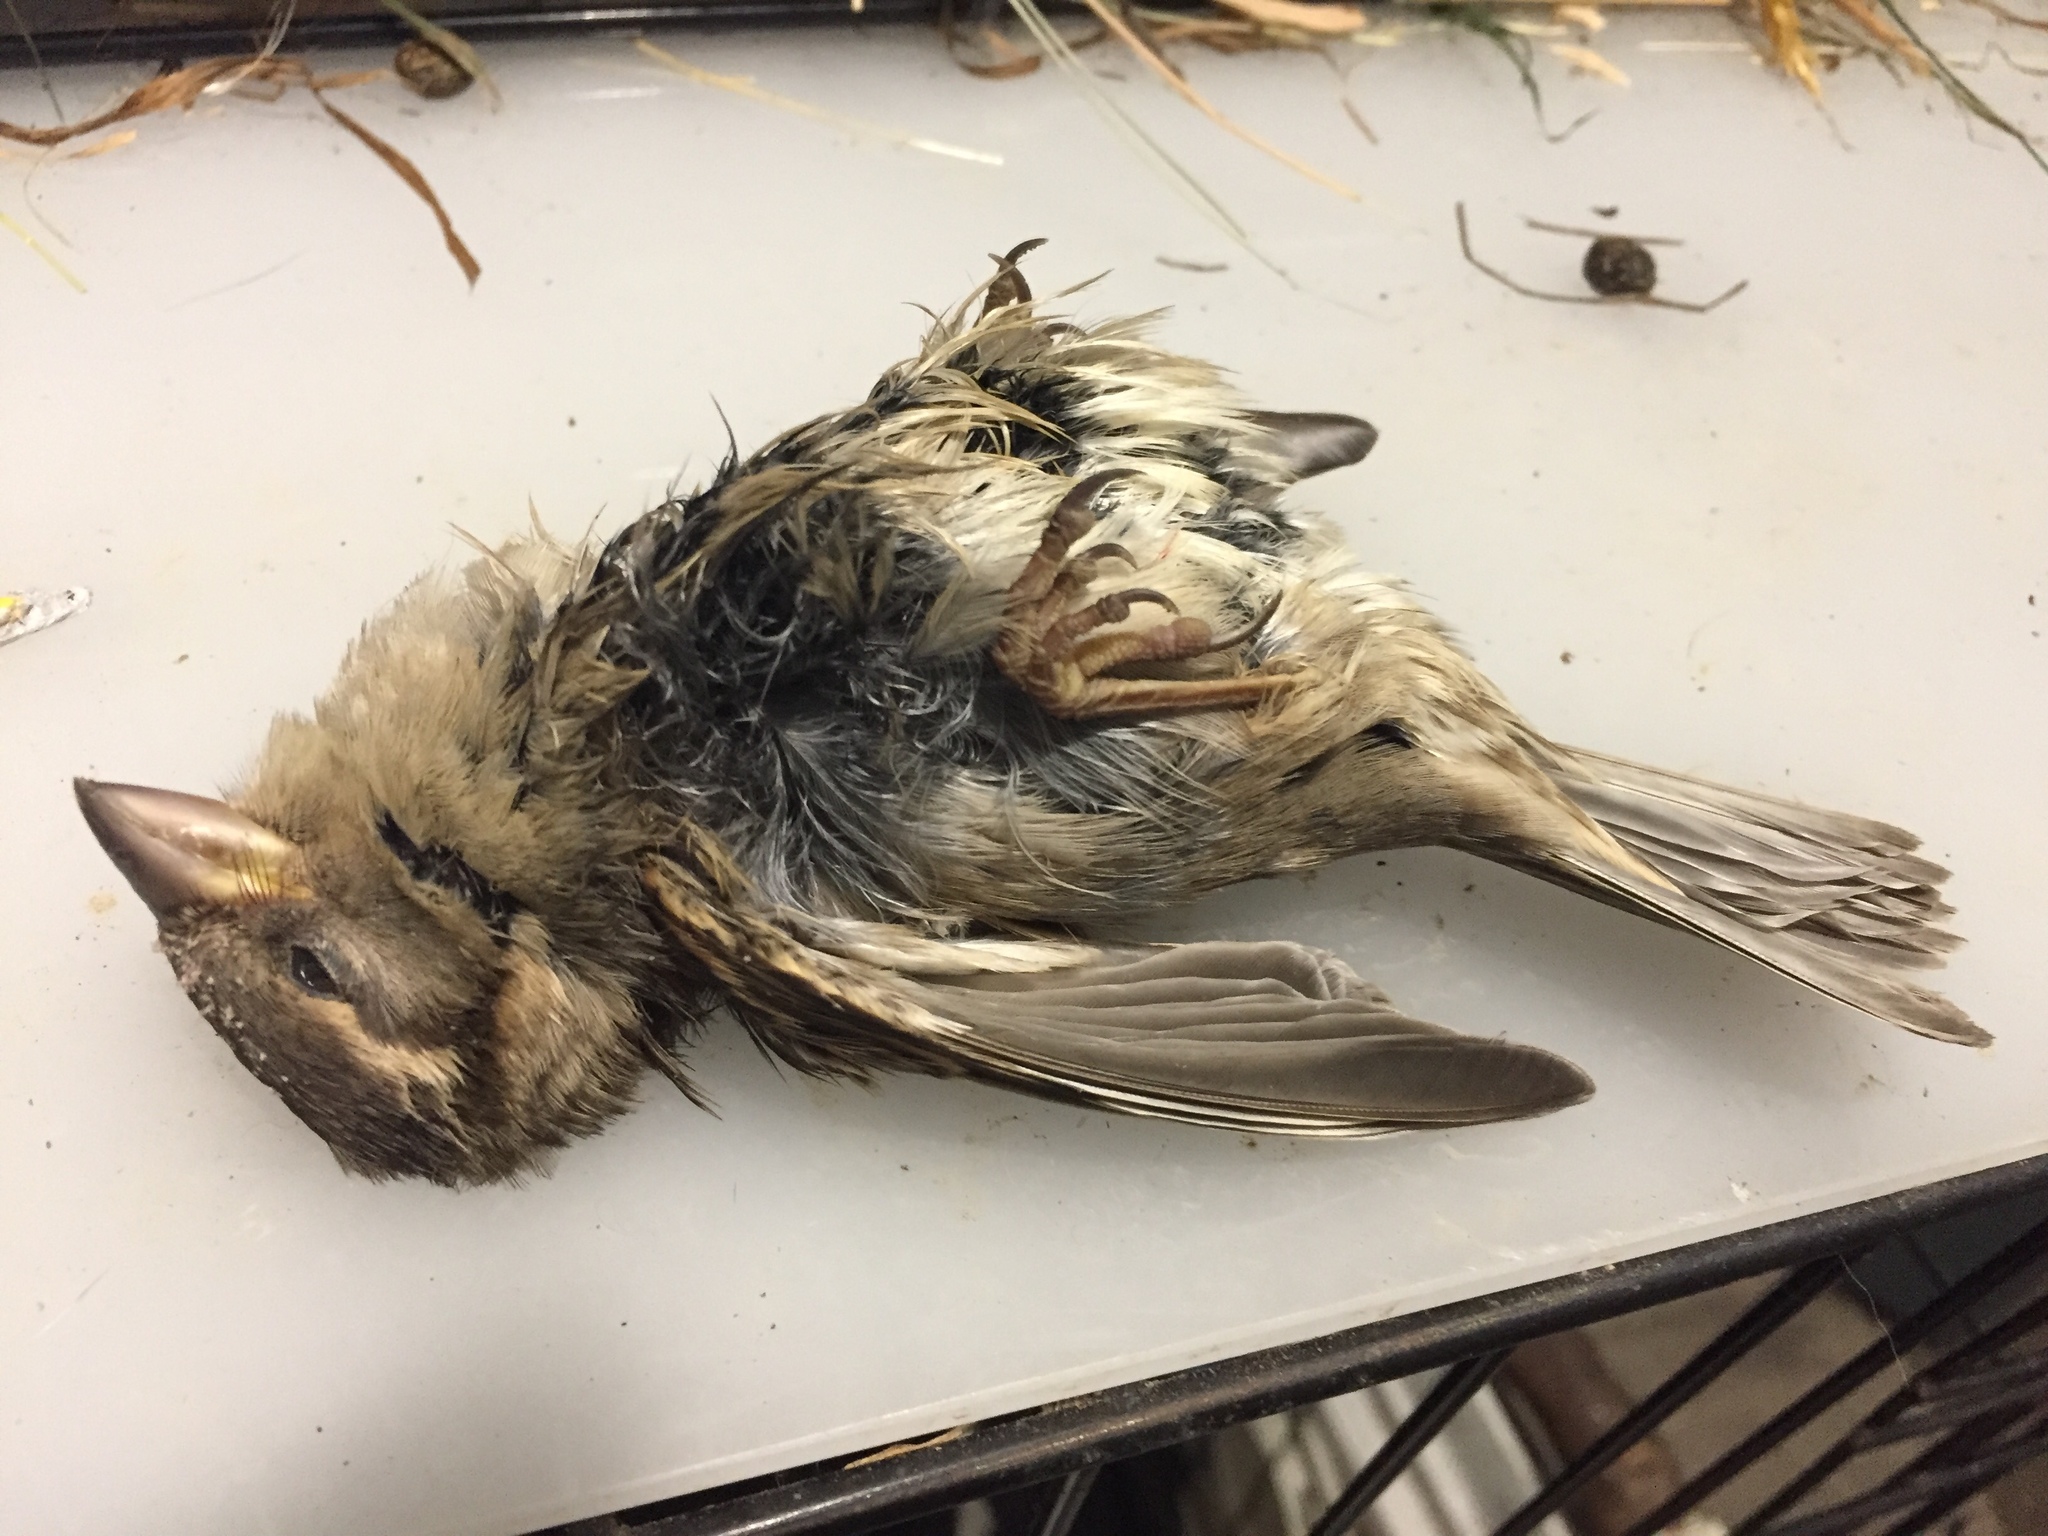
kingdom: Animalia
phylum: Chordata
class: Aves
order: Passeriformes
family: Passeridae
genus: Passer
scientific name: Passer domesticus
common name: House sparrow
